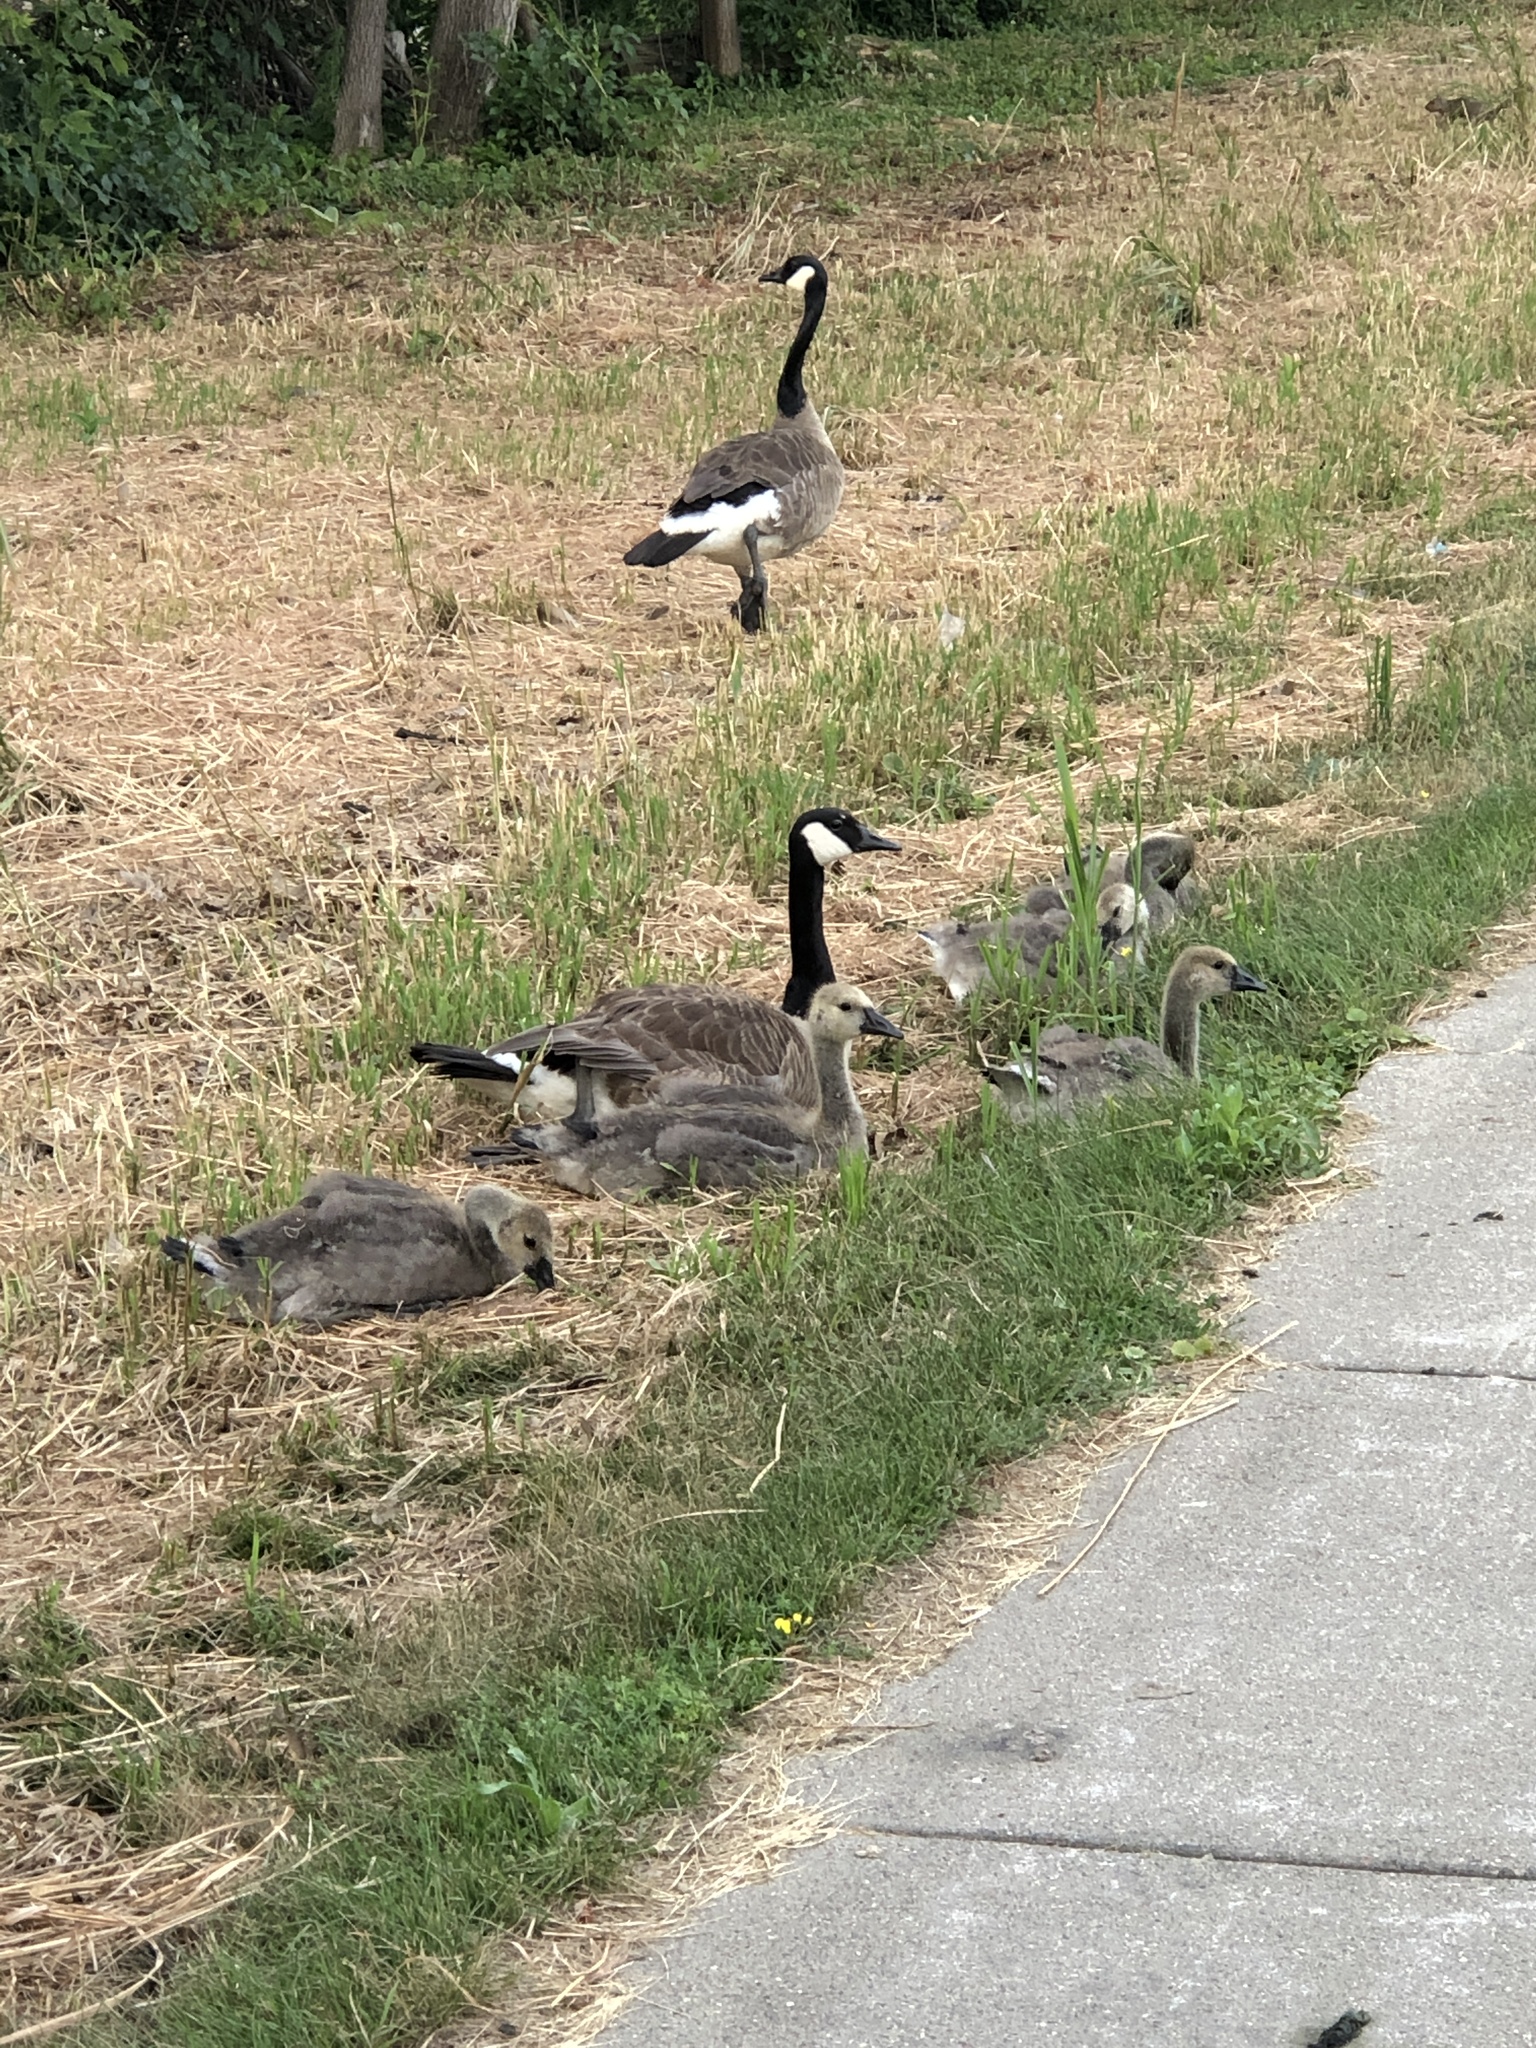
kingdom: Animalia
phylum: Chordata
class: Aves
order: Anseriformes
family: Anatidae
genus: Branta
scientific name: Branta canadensis
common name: Canada goose
